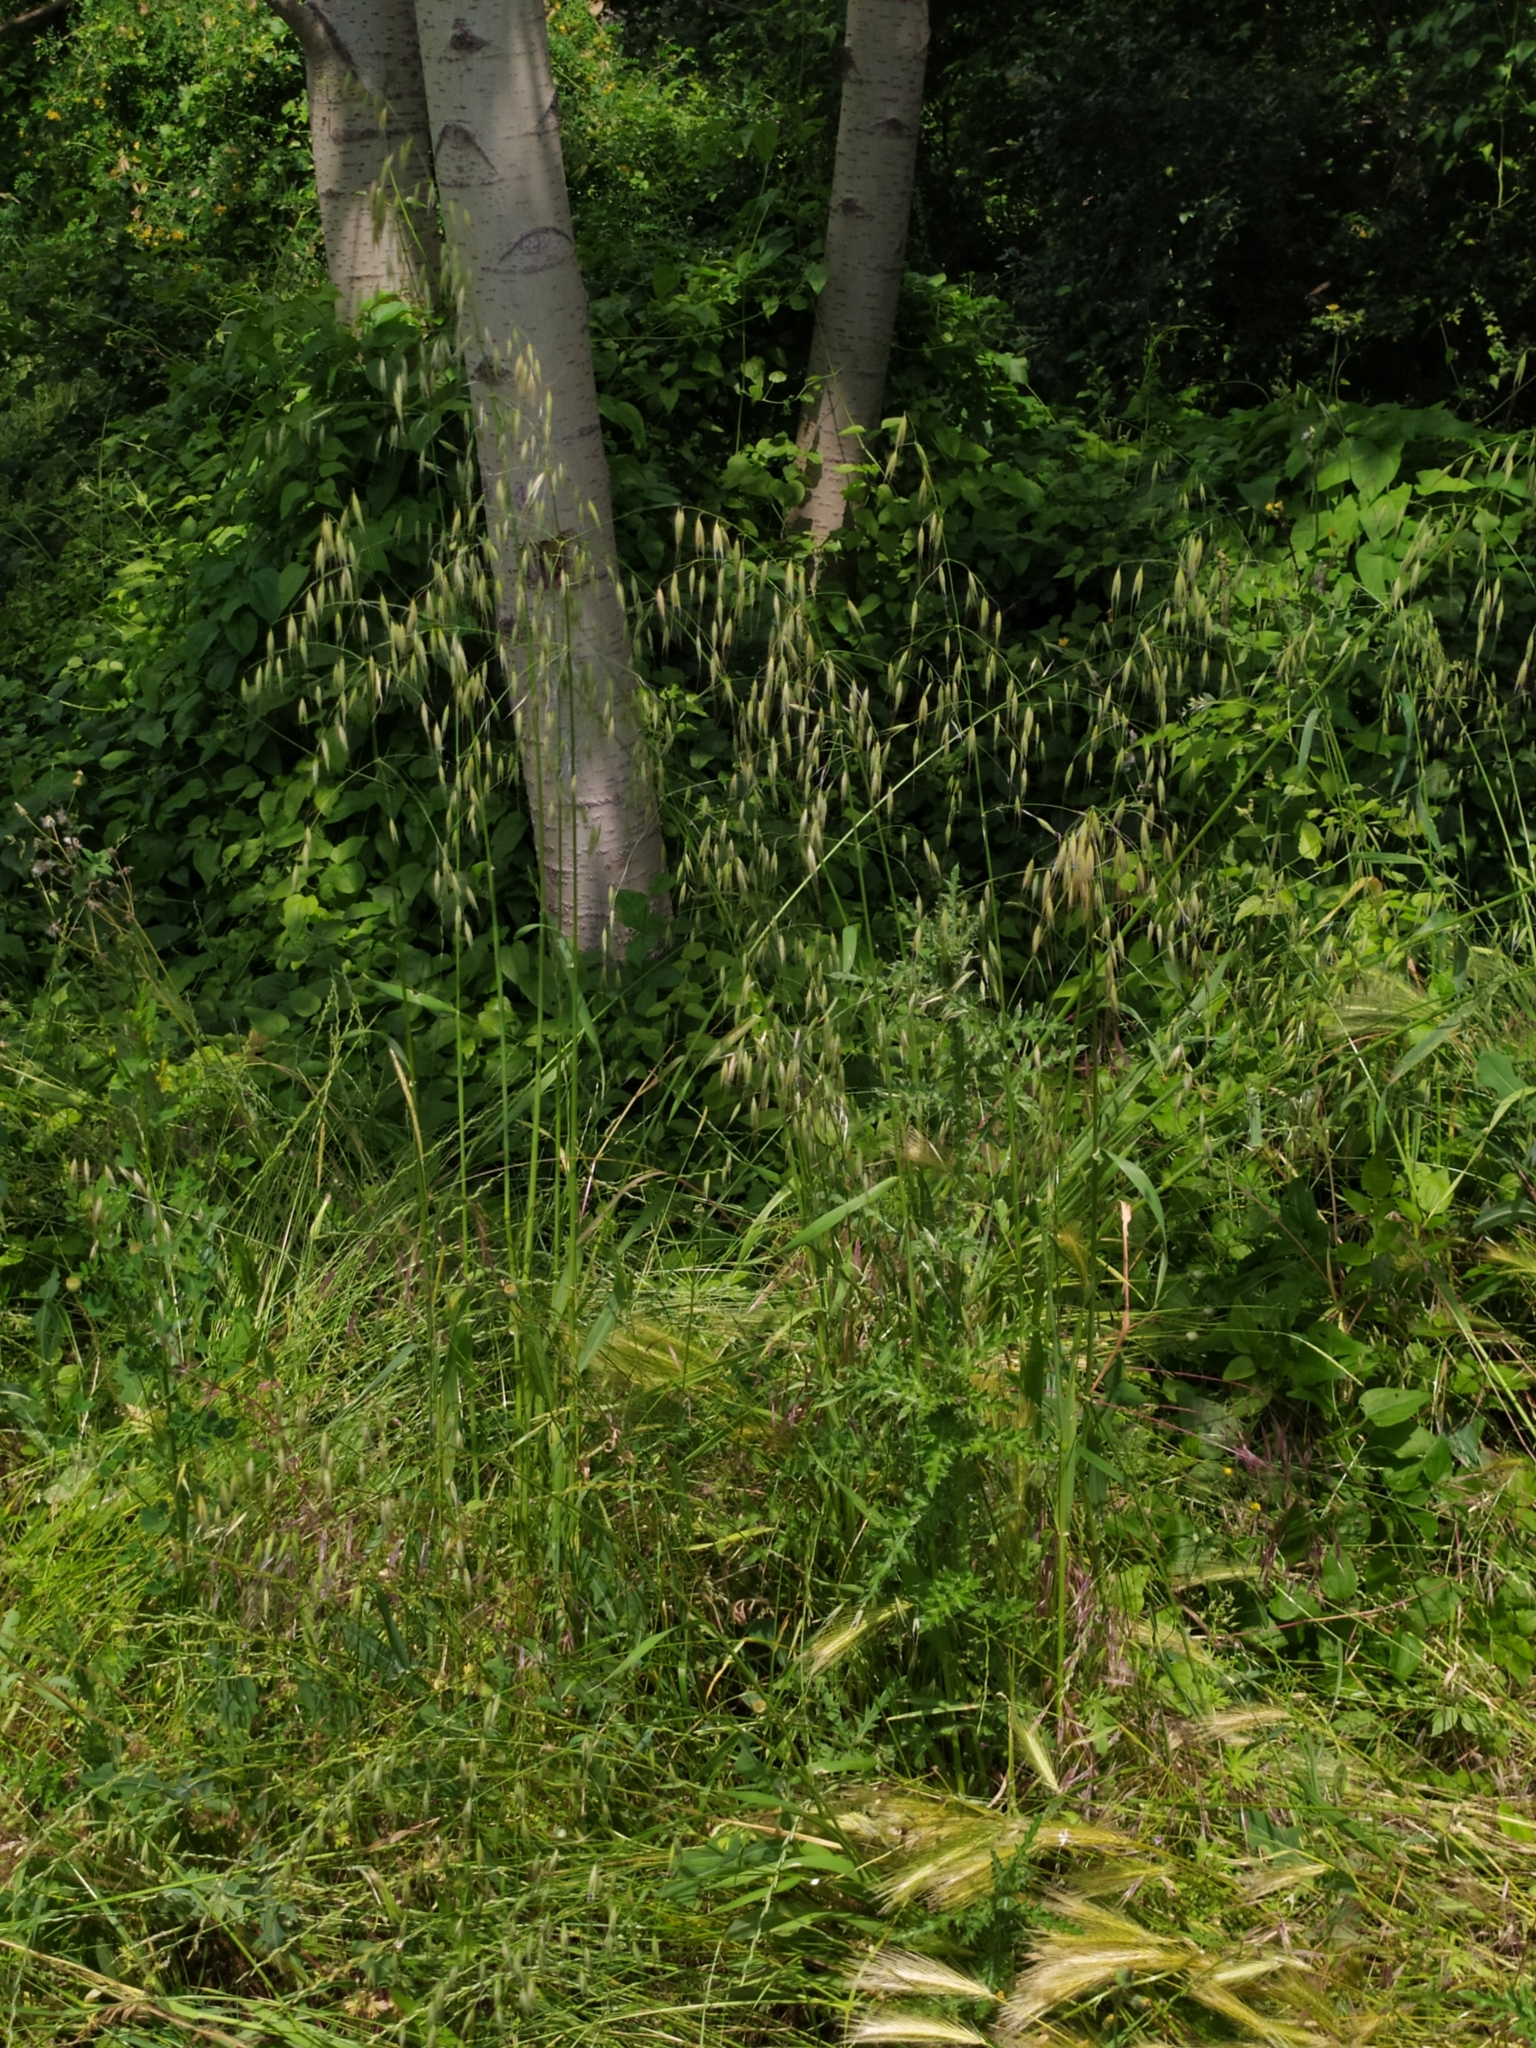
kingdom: Plantae
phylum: Tracheophyta
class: Liliopsida
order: Poales
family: Poaceae
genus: Avena
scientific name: Avena fatua
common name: Wild oat
